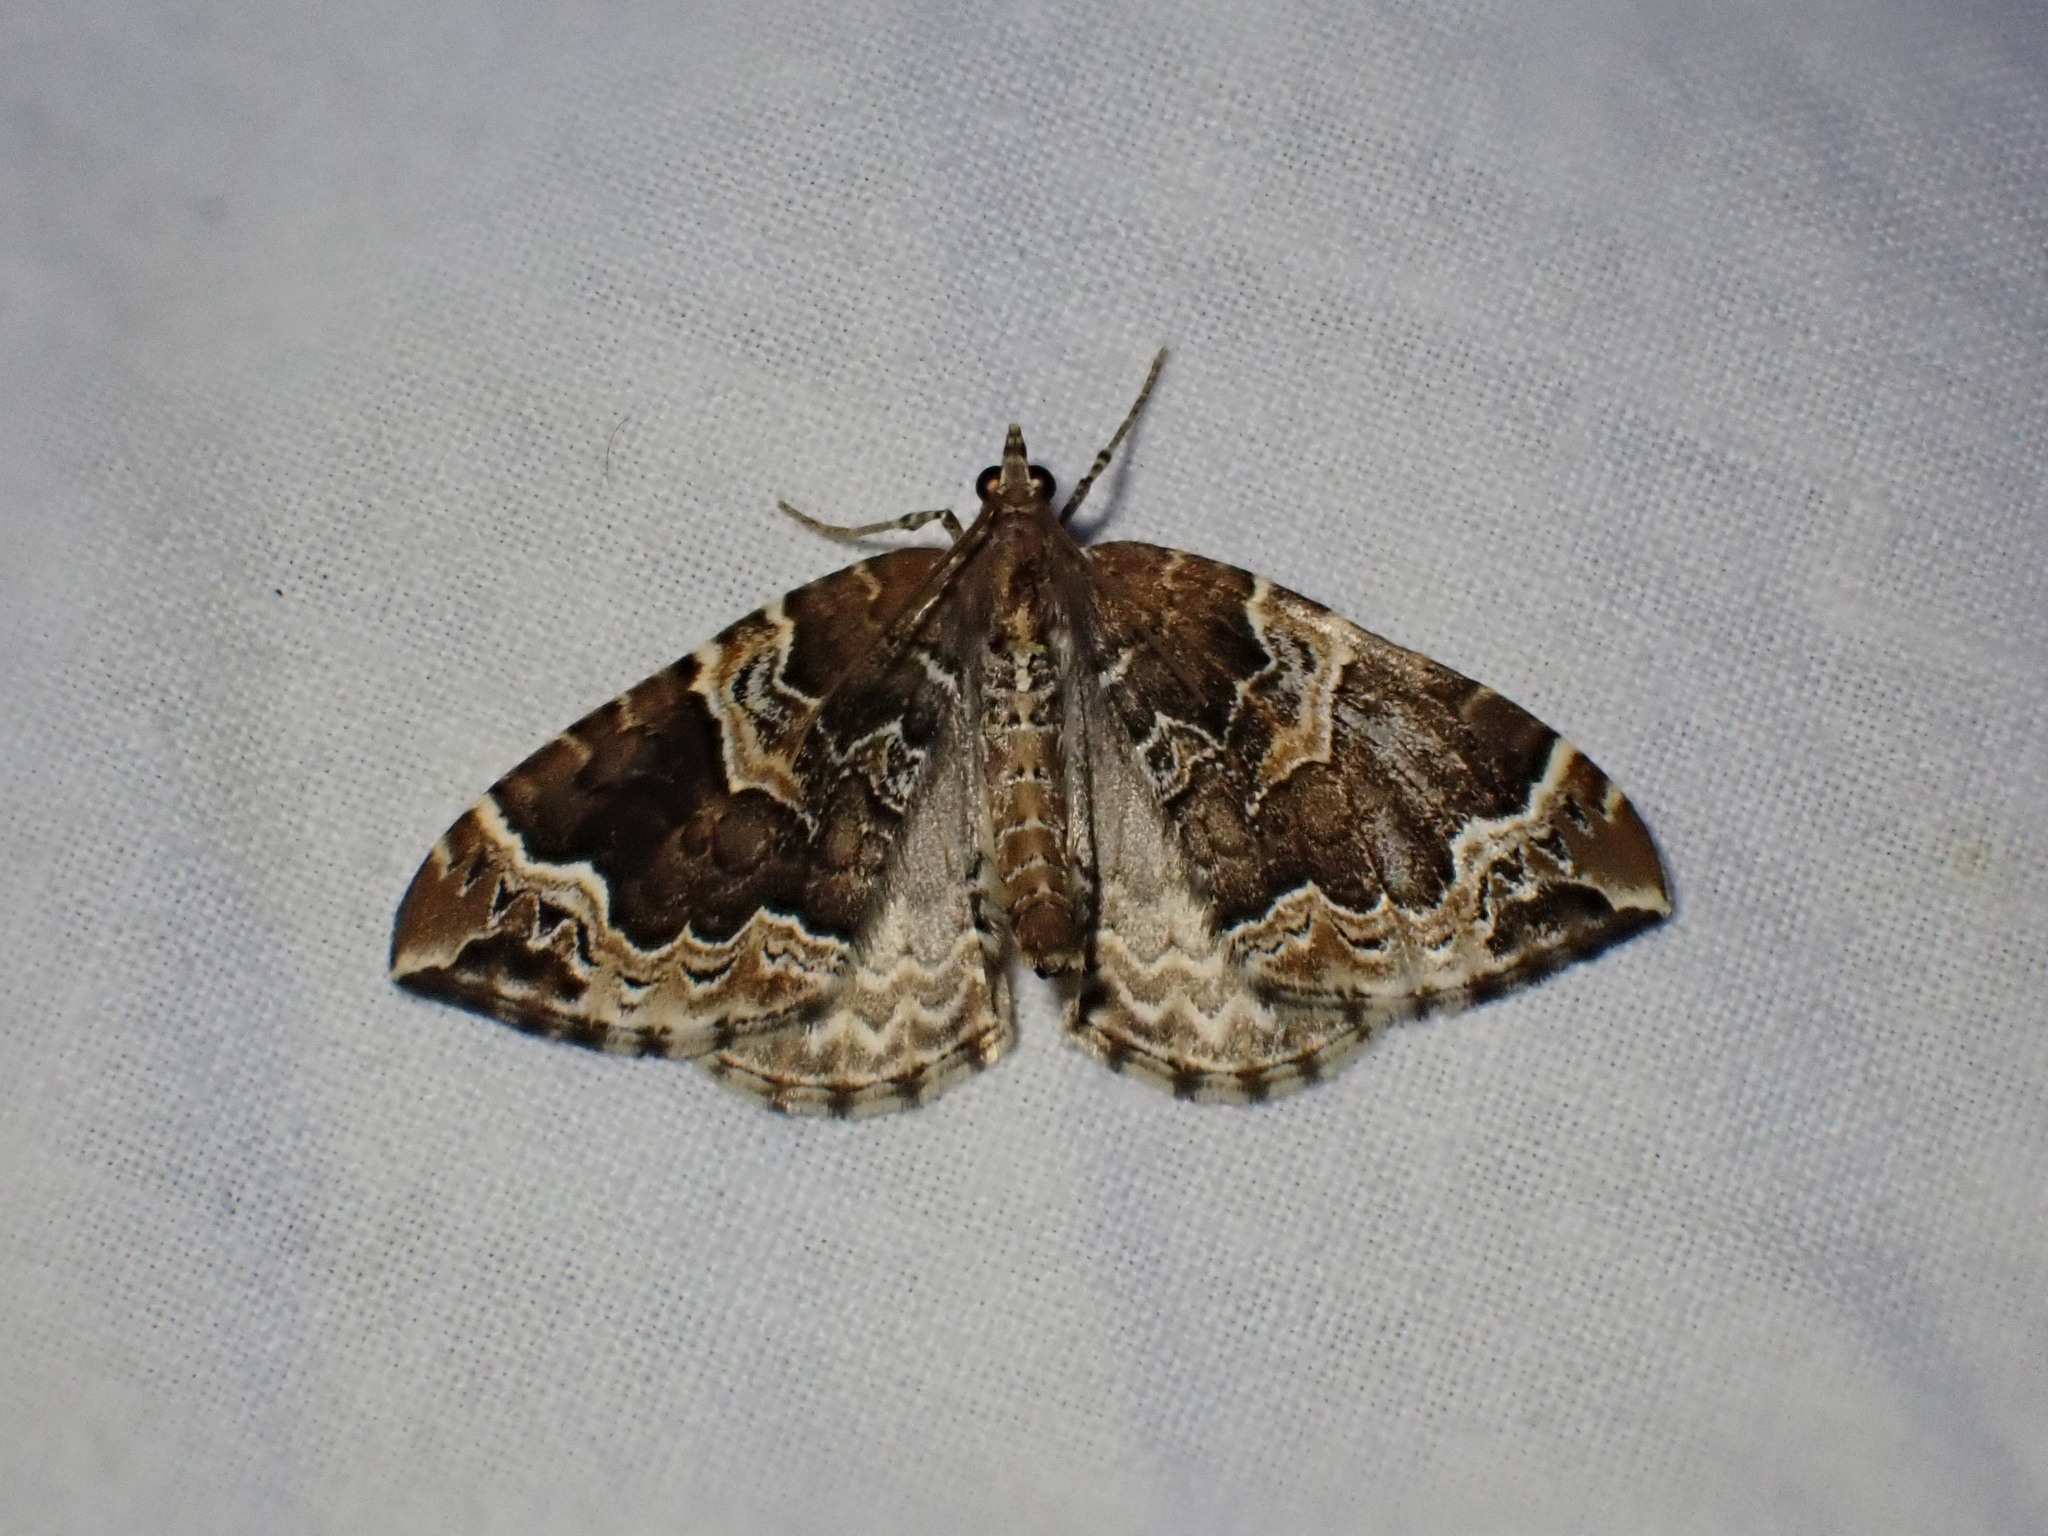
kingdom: Animalia
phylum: Arthropoda
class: Insecta
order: Lepidoptera
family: Geometridae
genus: Eulithis
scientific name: Eulithis prunata
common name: Phoenix
